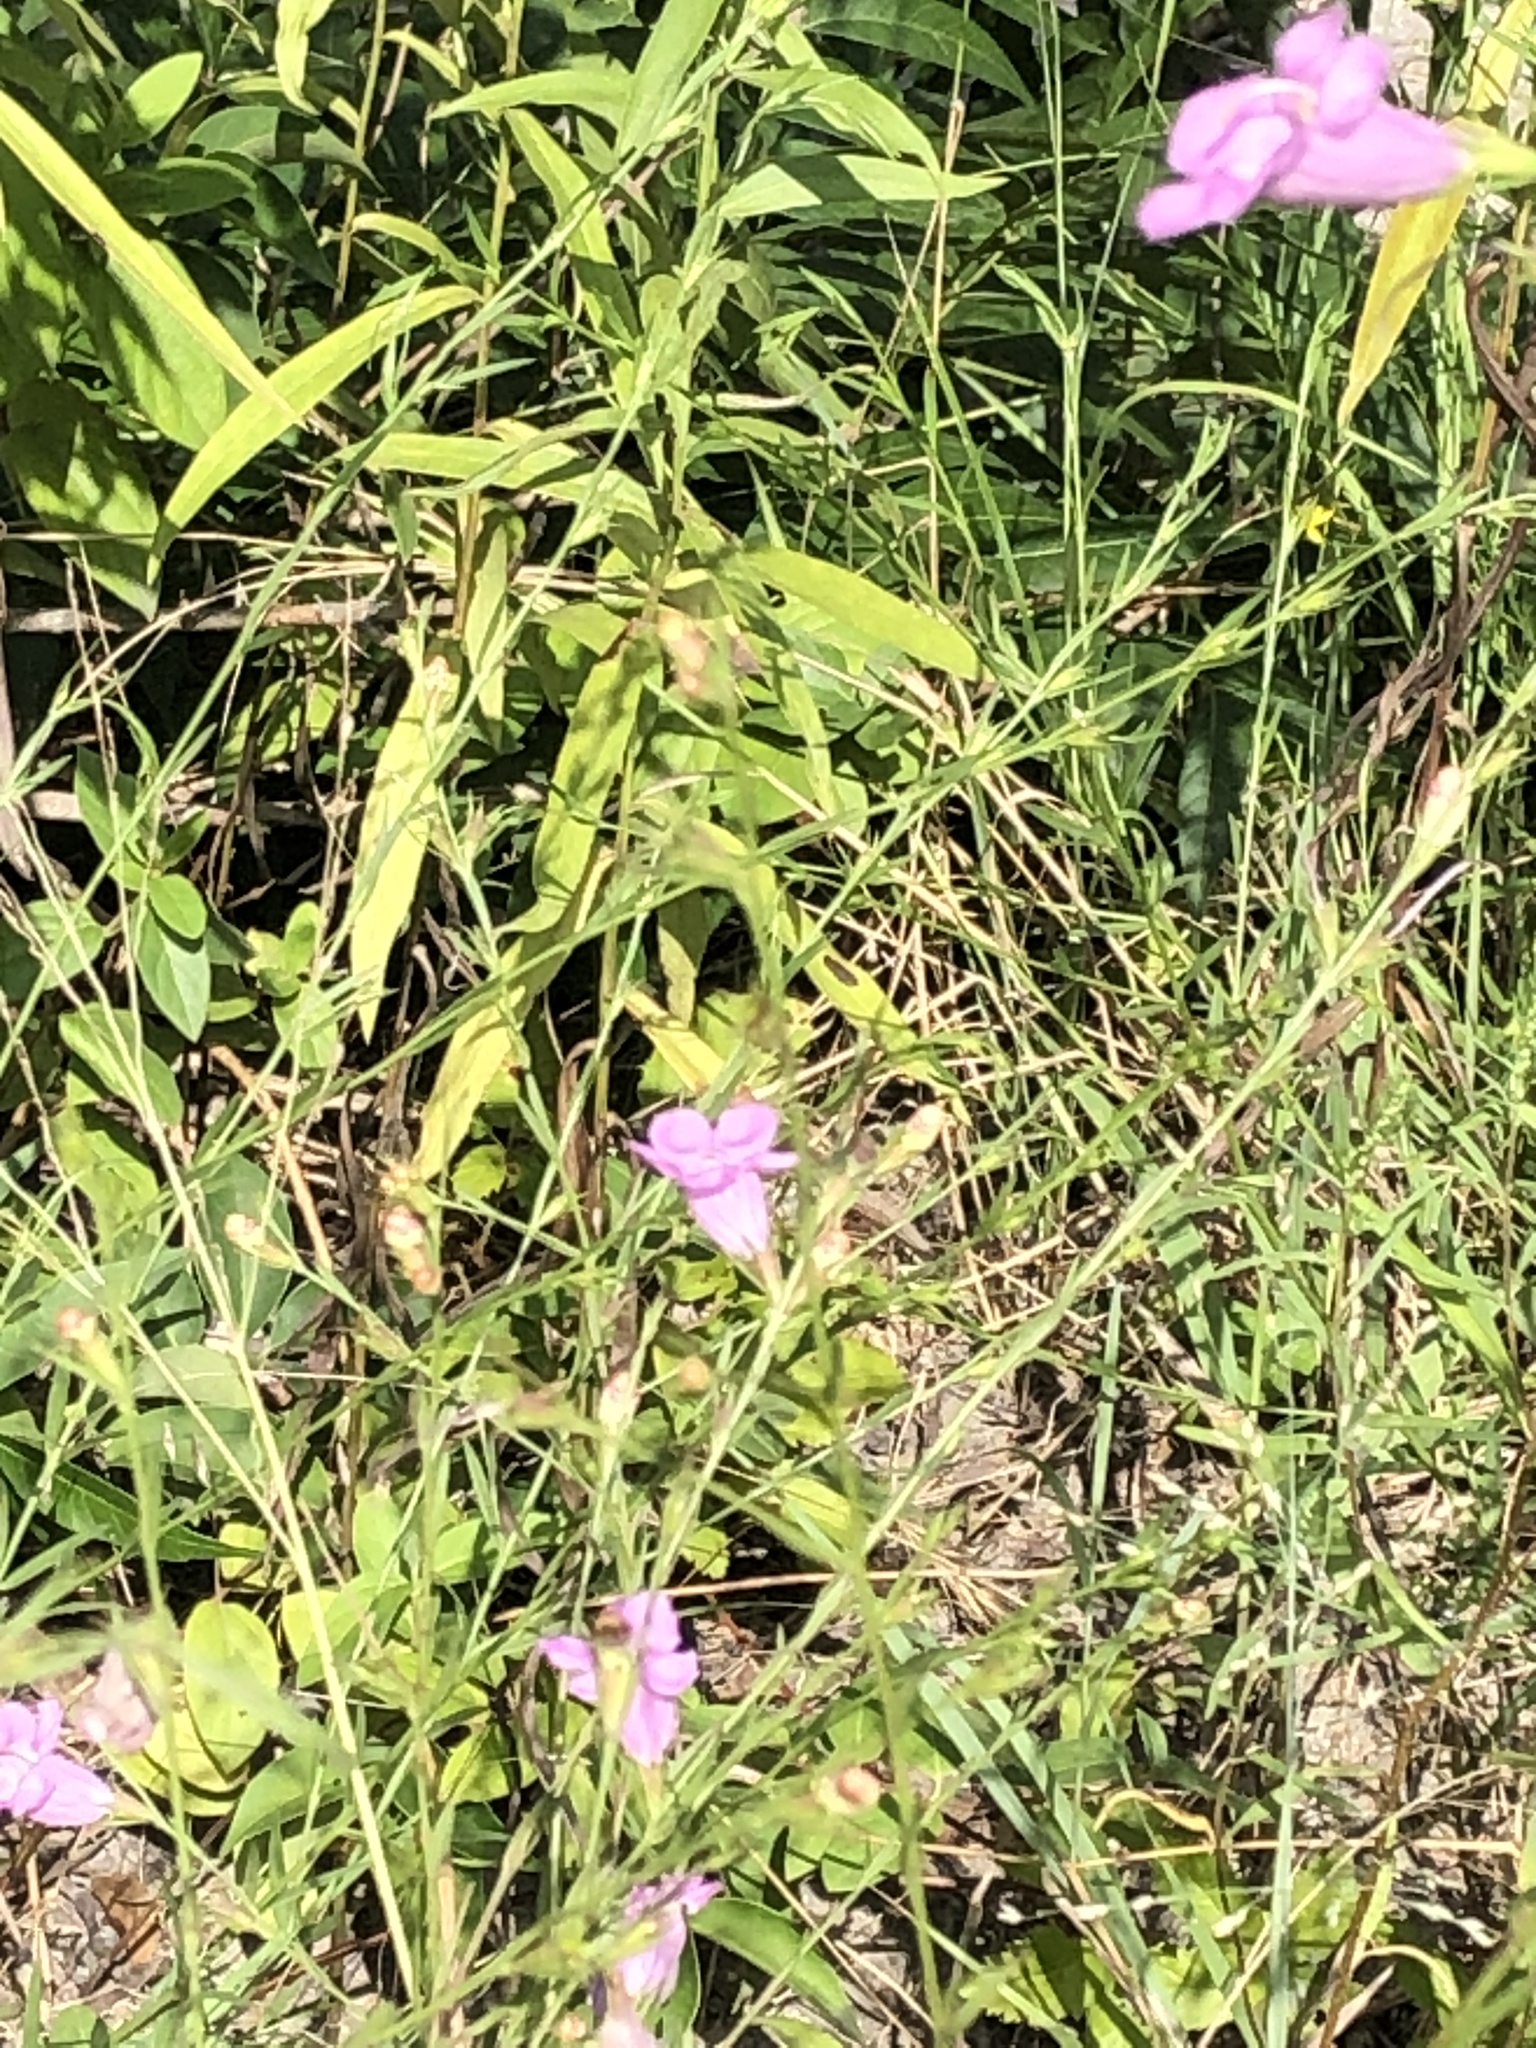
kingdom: Plantae
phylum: Tracheophyta
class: Magnoliopsida
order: Lamiales
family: Orobanchaceae
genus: Agalinis
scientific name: Agalinis heterophylla
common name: Prairie agalinis
